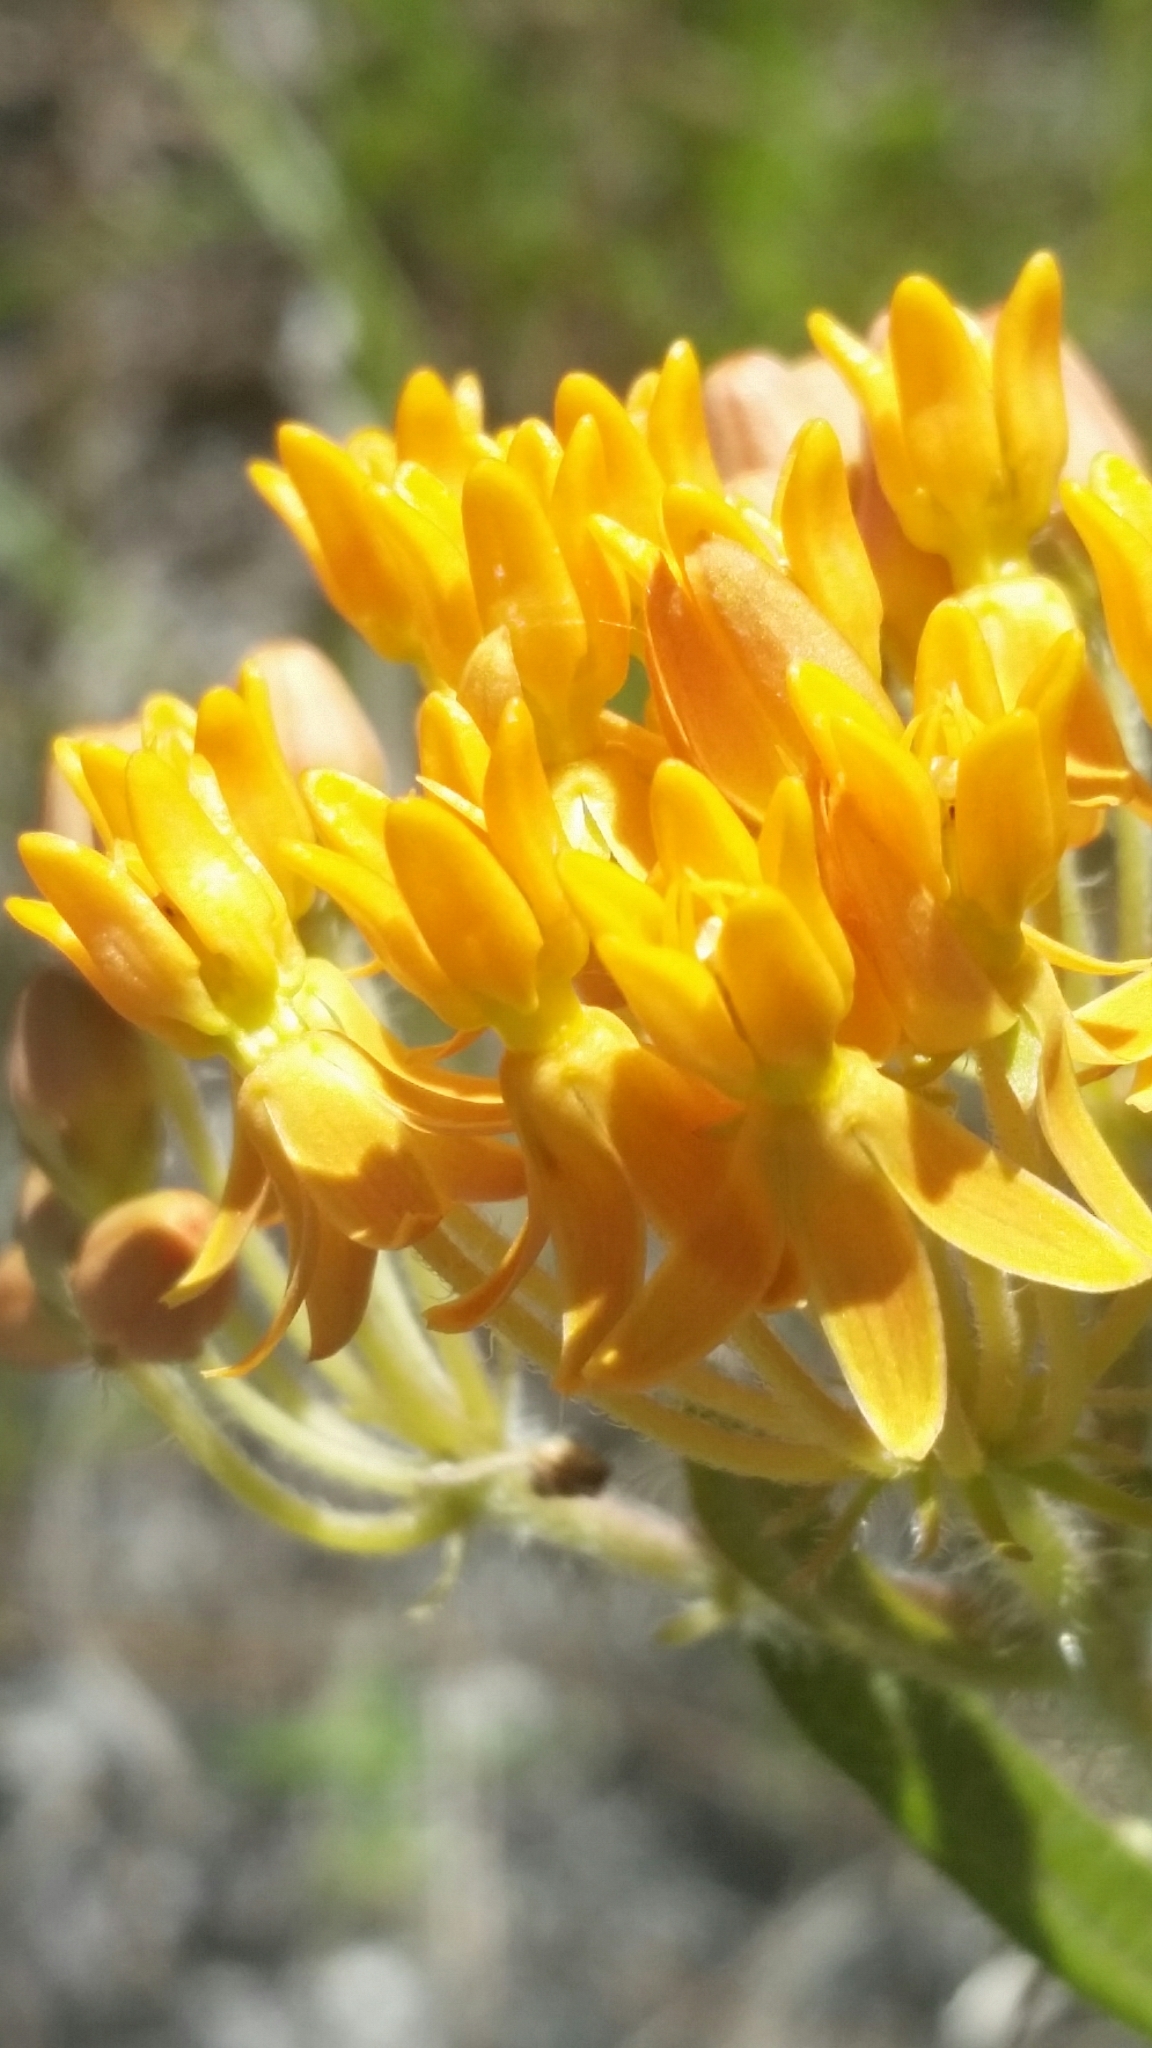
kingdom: Plantae
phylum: Tracheophyta
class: Magnoliopsida
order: Gentianales
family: Apocynaceae
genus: Asclepias
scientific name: Asclepias tuberosa
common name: Butterfly milkweed
